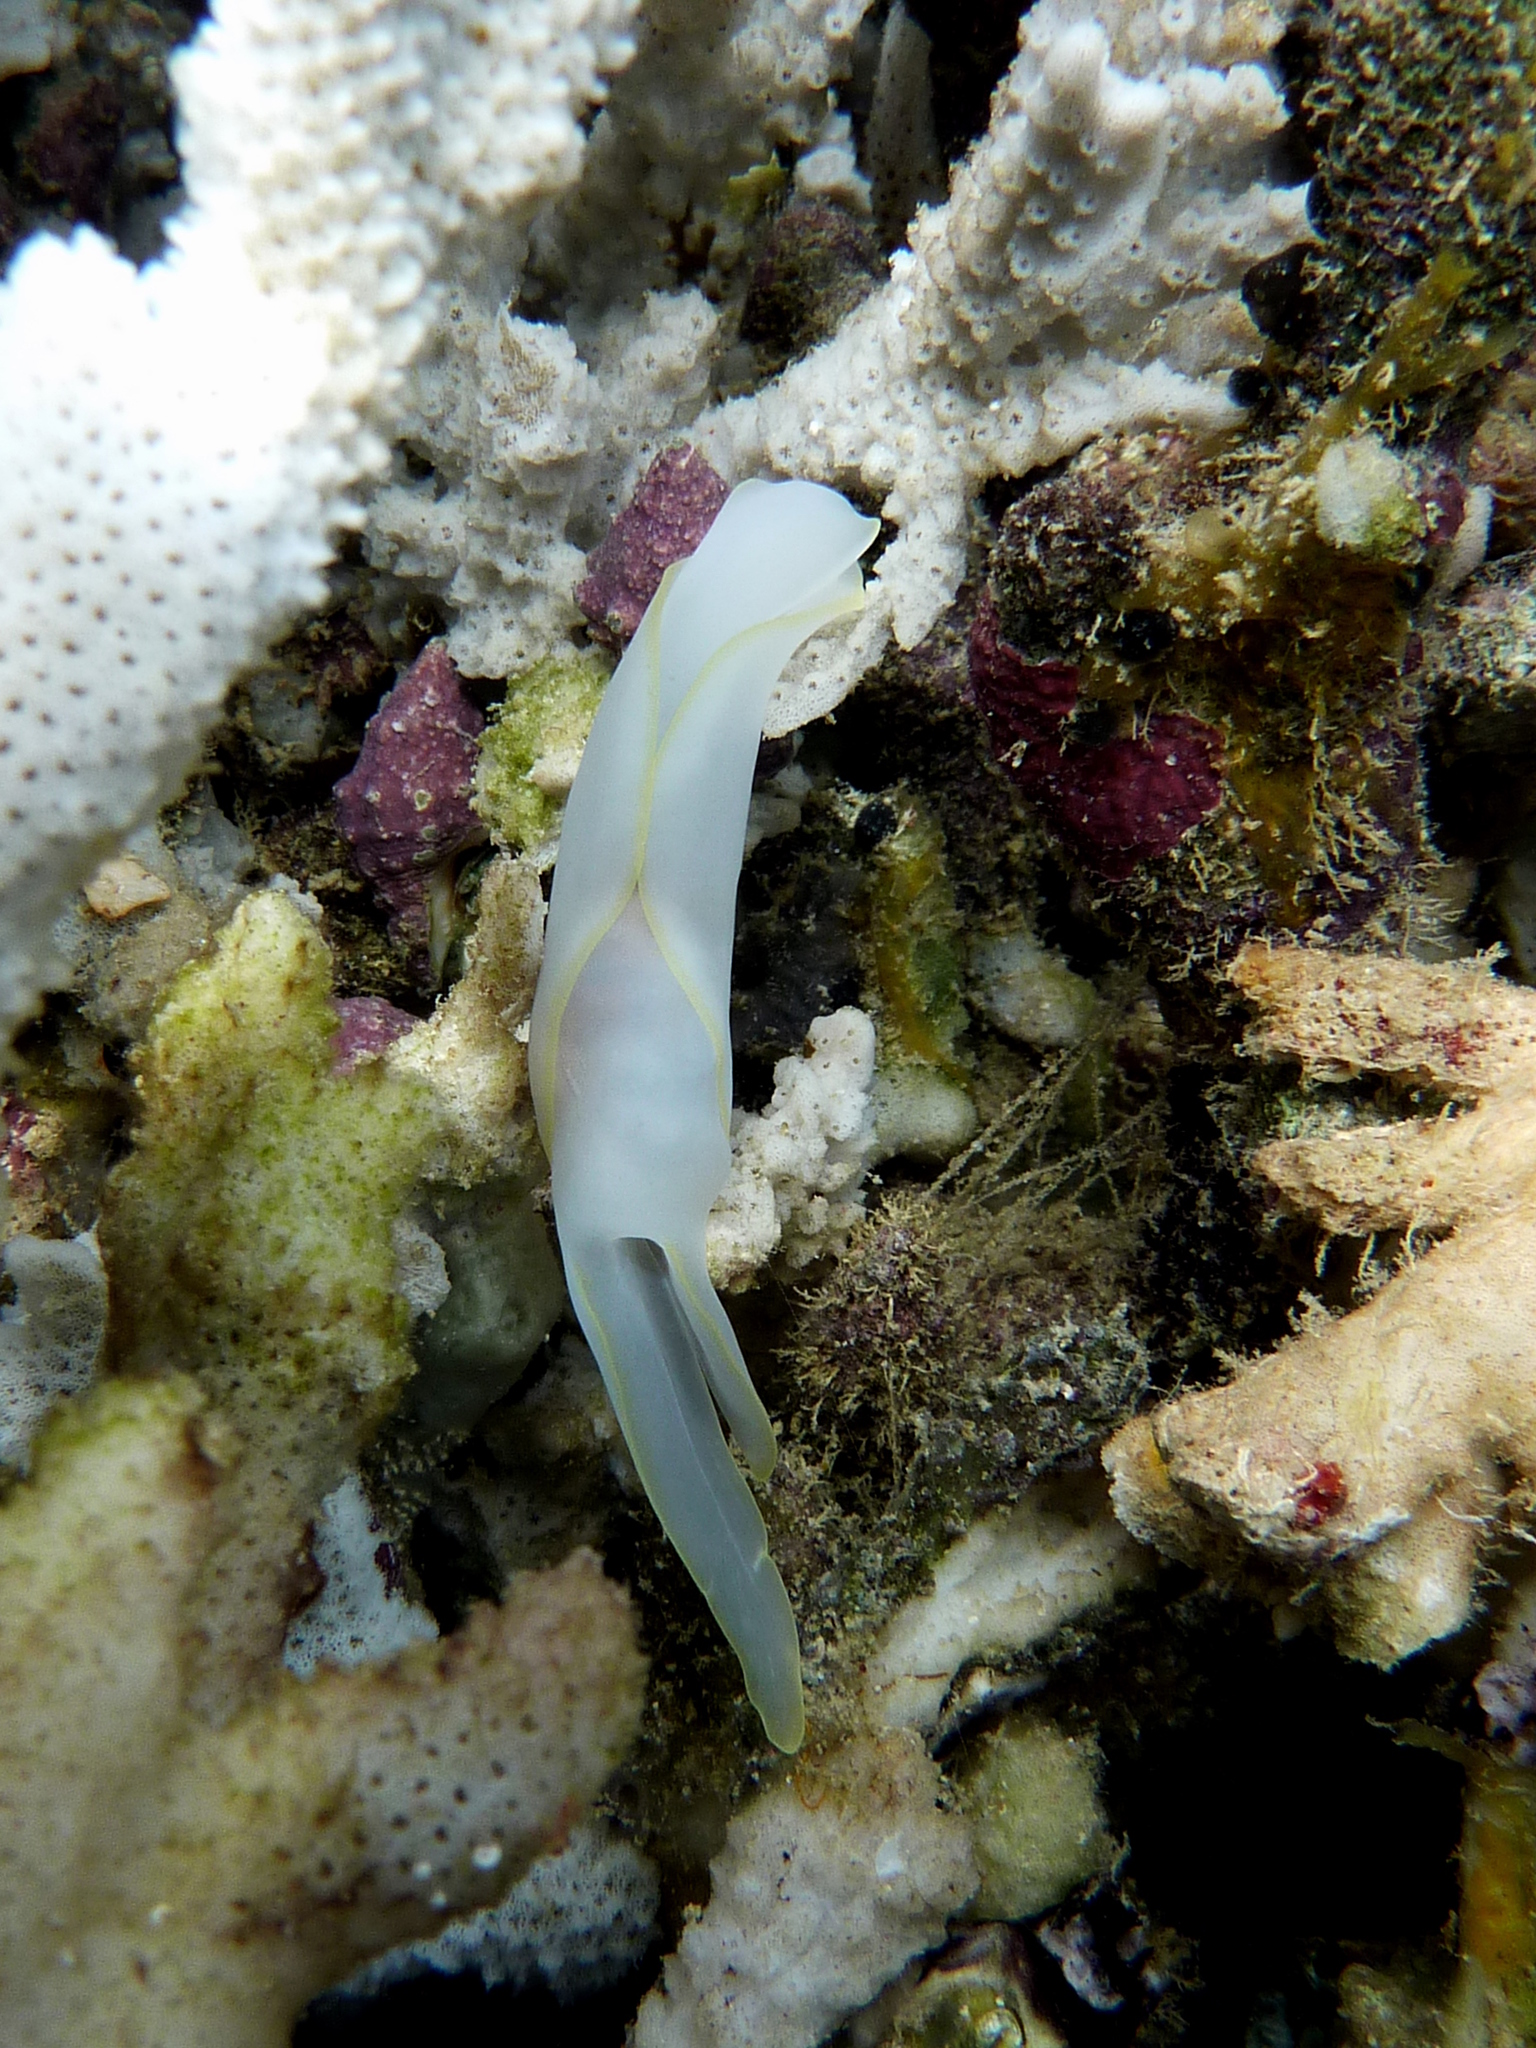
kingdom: Animalia
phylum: Mollusca
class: Gastropoda
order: Cephalaspidea
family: Aglajidae
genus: Chelidonura
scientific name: Chelidonura electra
